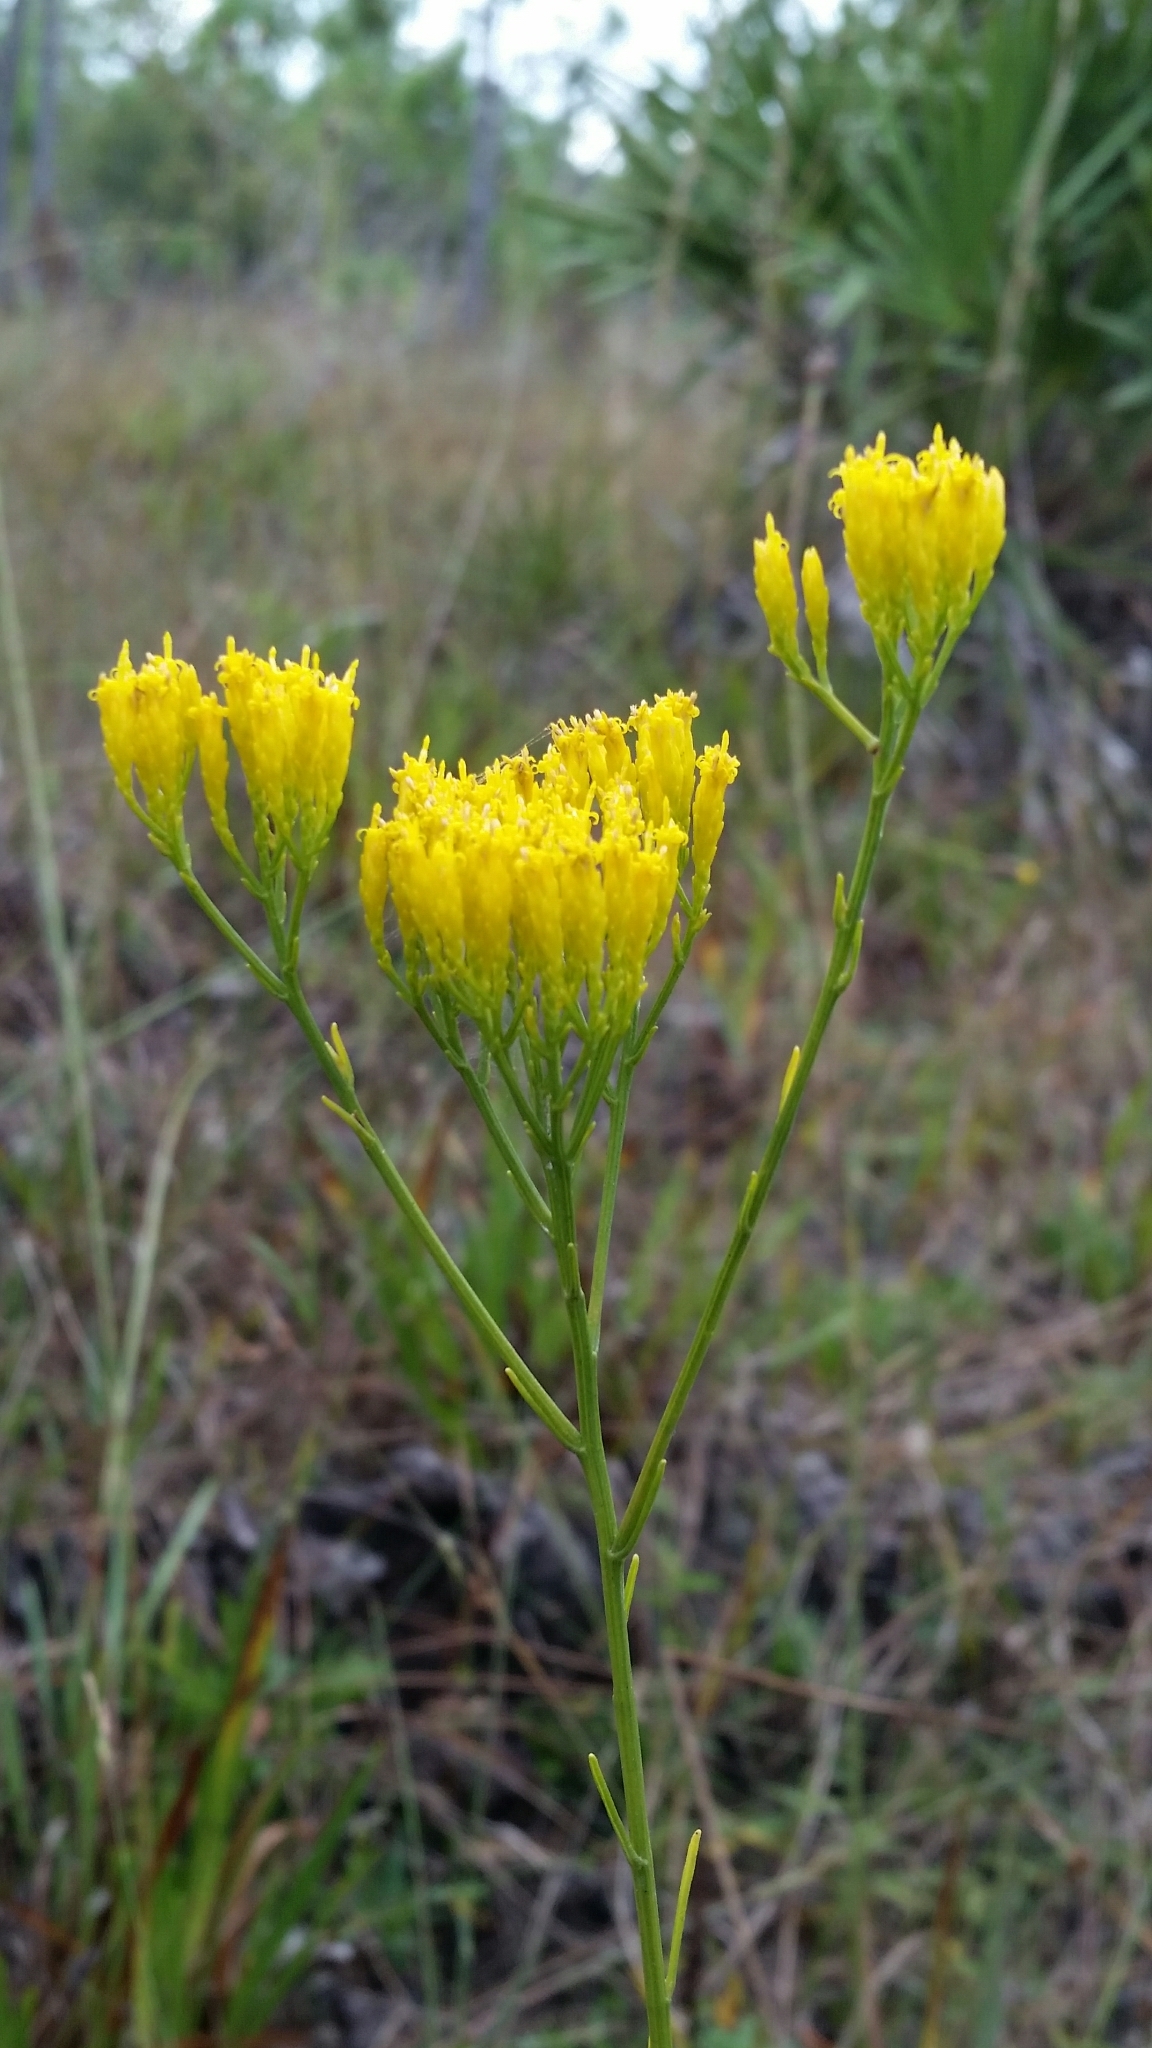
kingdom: Plantae
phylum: Tracheophyta
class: Magnoliopsida
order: Asterales
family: Asteraceae
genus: Bigelowia
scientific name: Bigelowia australis
